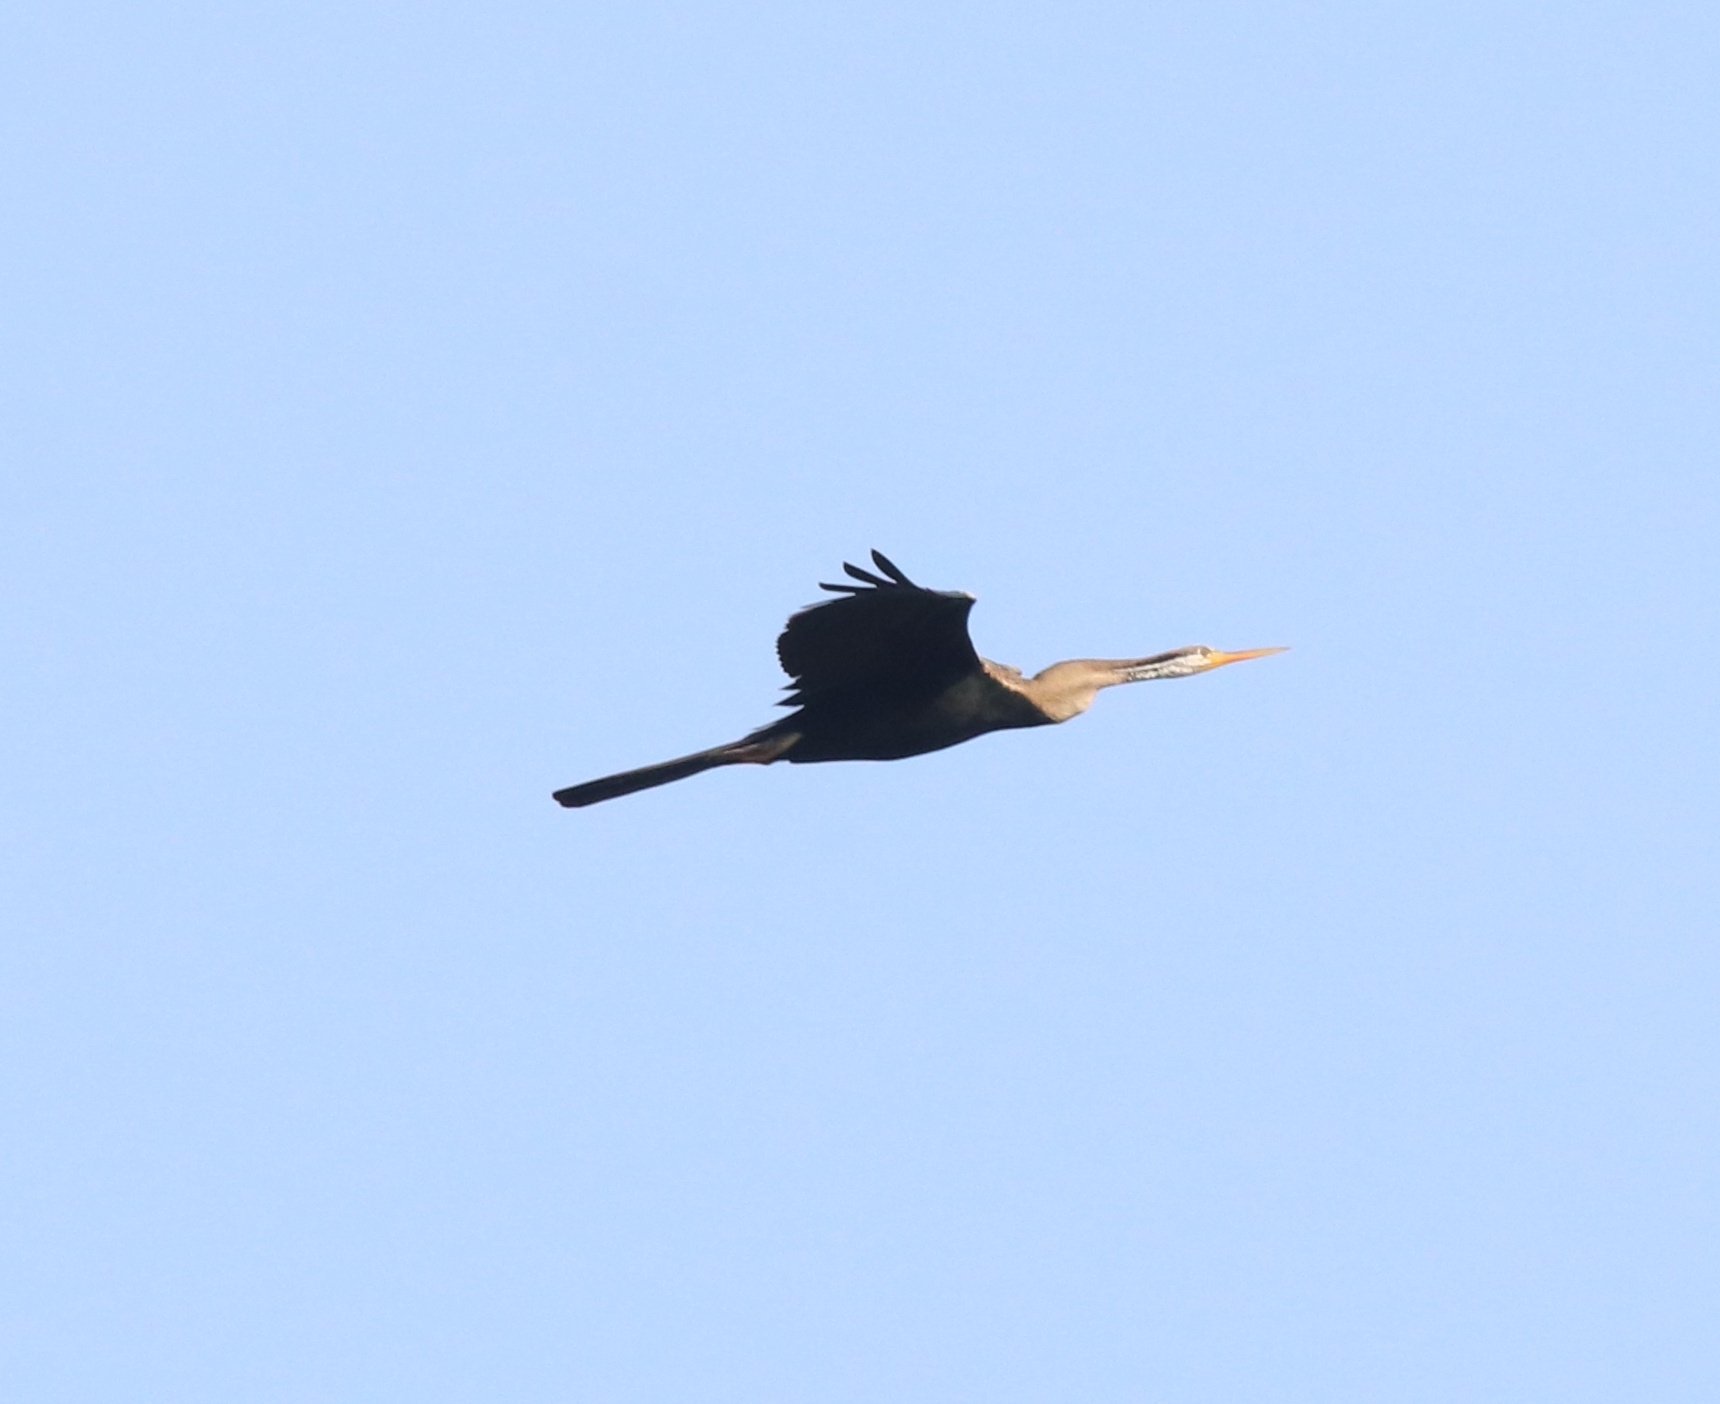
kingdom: Animalia
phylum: Chordata
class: Aves
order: Suliformes
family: Anhingidae
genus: Anhinga
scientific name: Anhinga melanogaster
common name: Oriental darter
